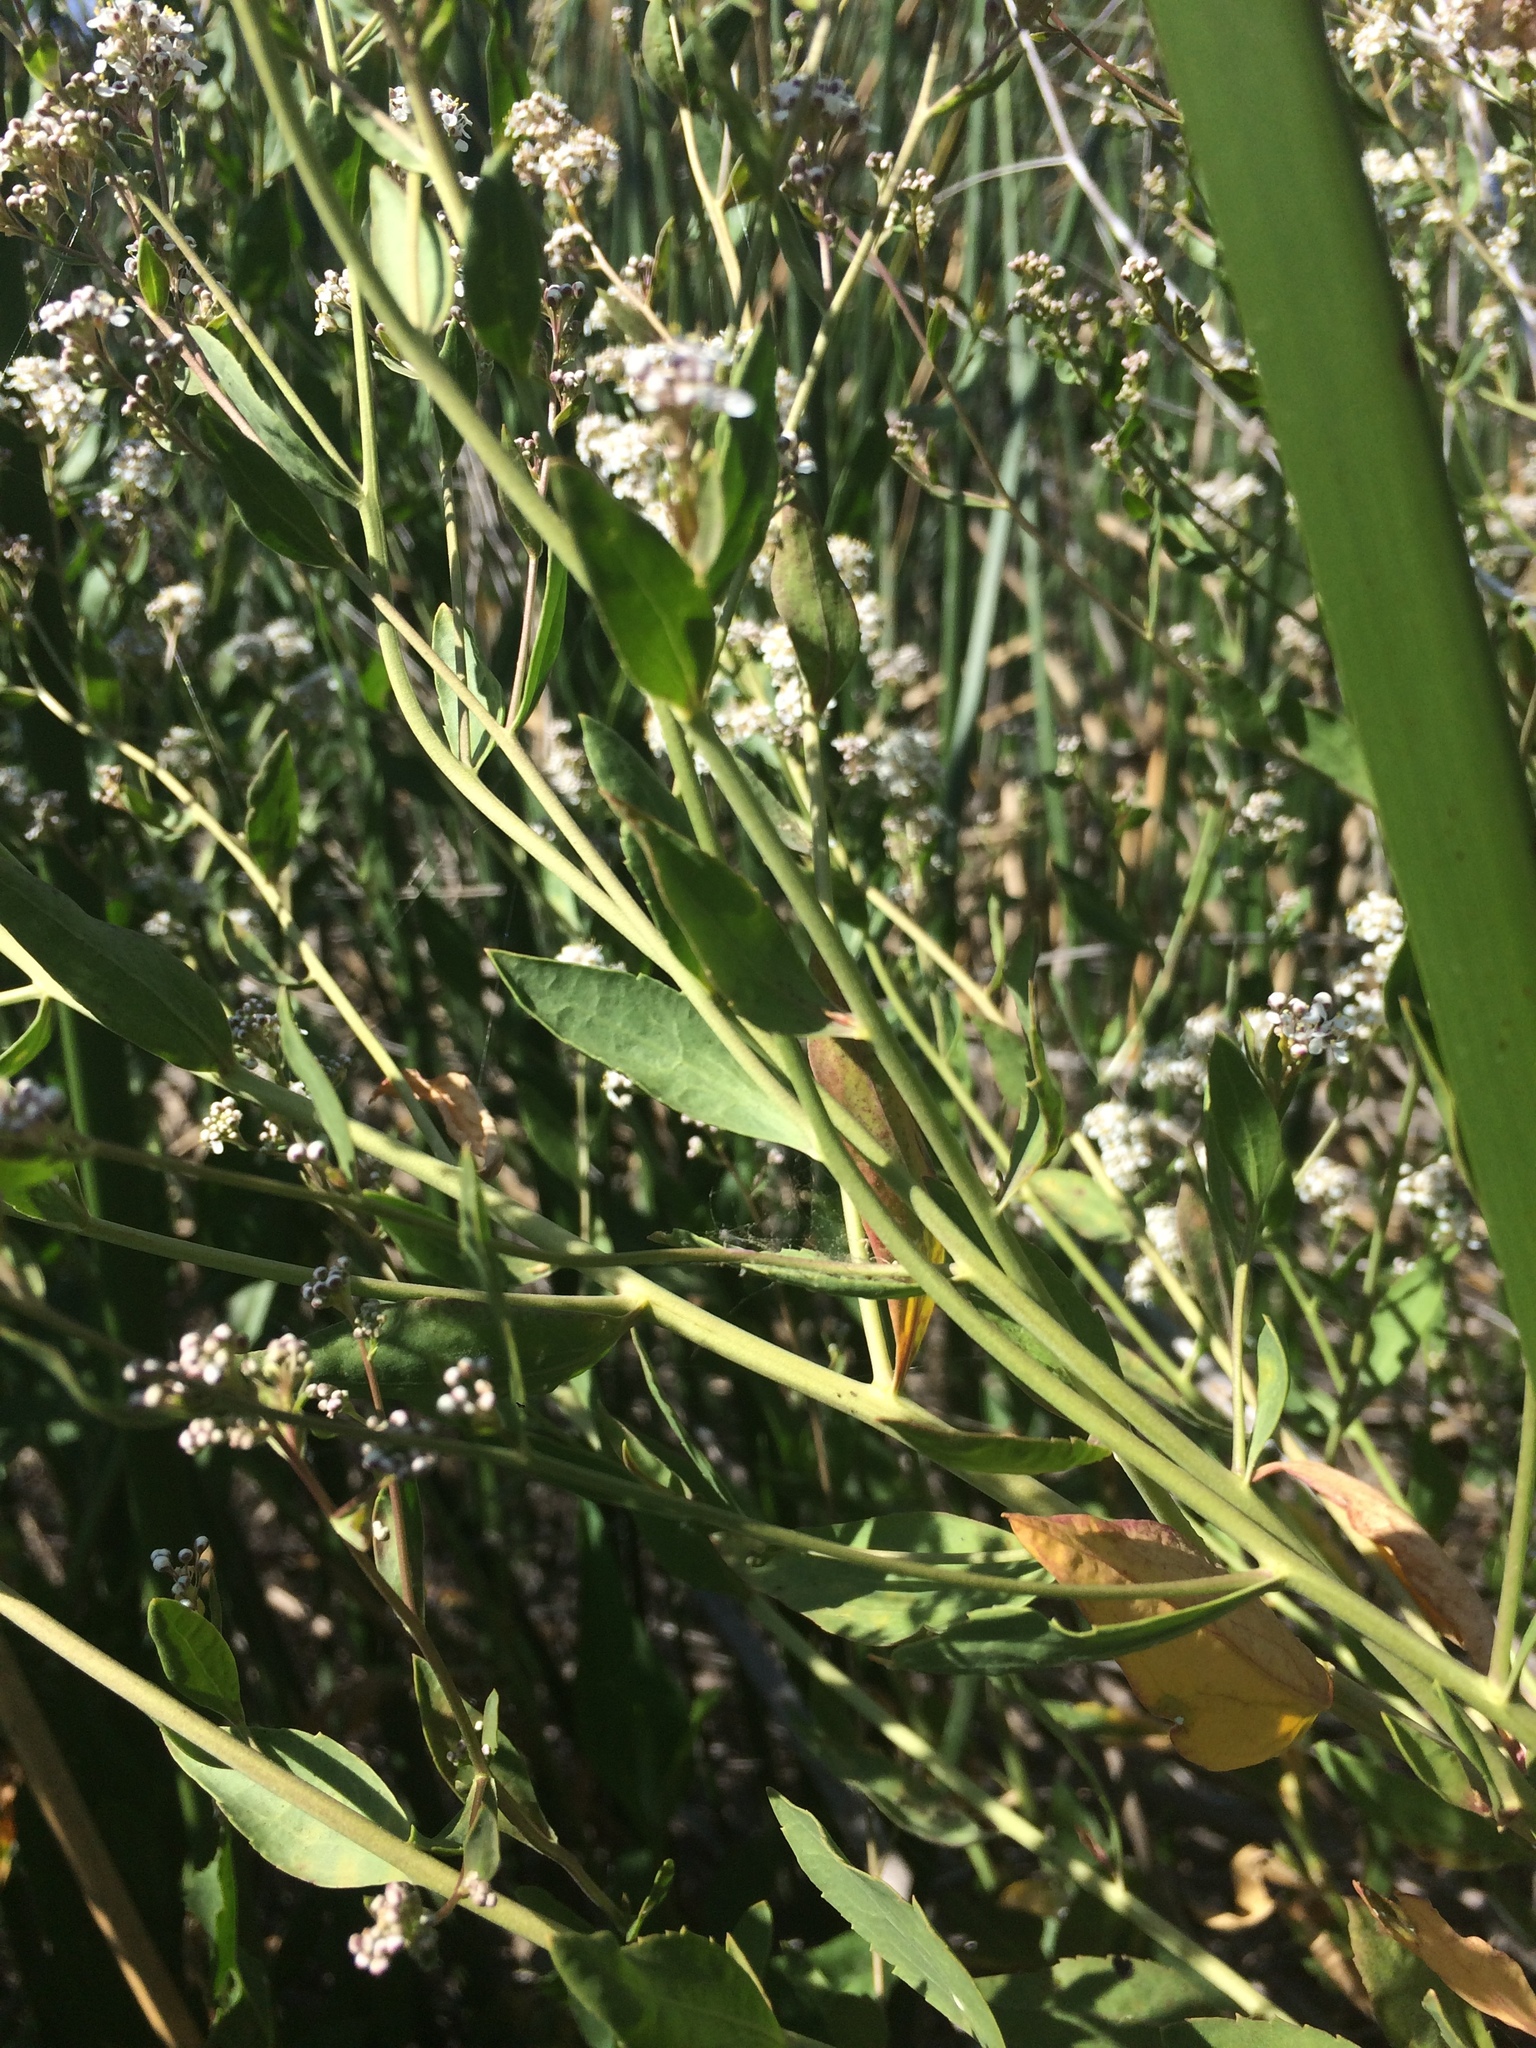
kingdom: Plantae
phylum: Tracheophyta
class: Magnoliopsida
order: Brassicales
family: Brassicaceae
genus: Lepidium
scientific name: Lepidium latifolium
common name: Dittander
